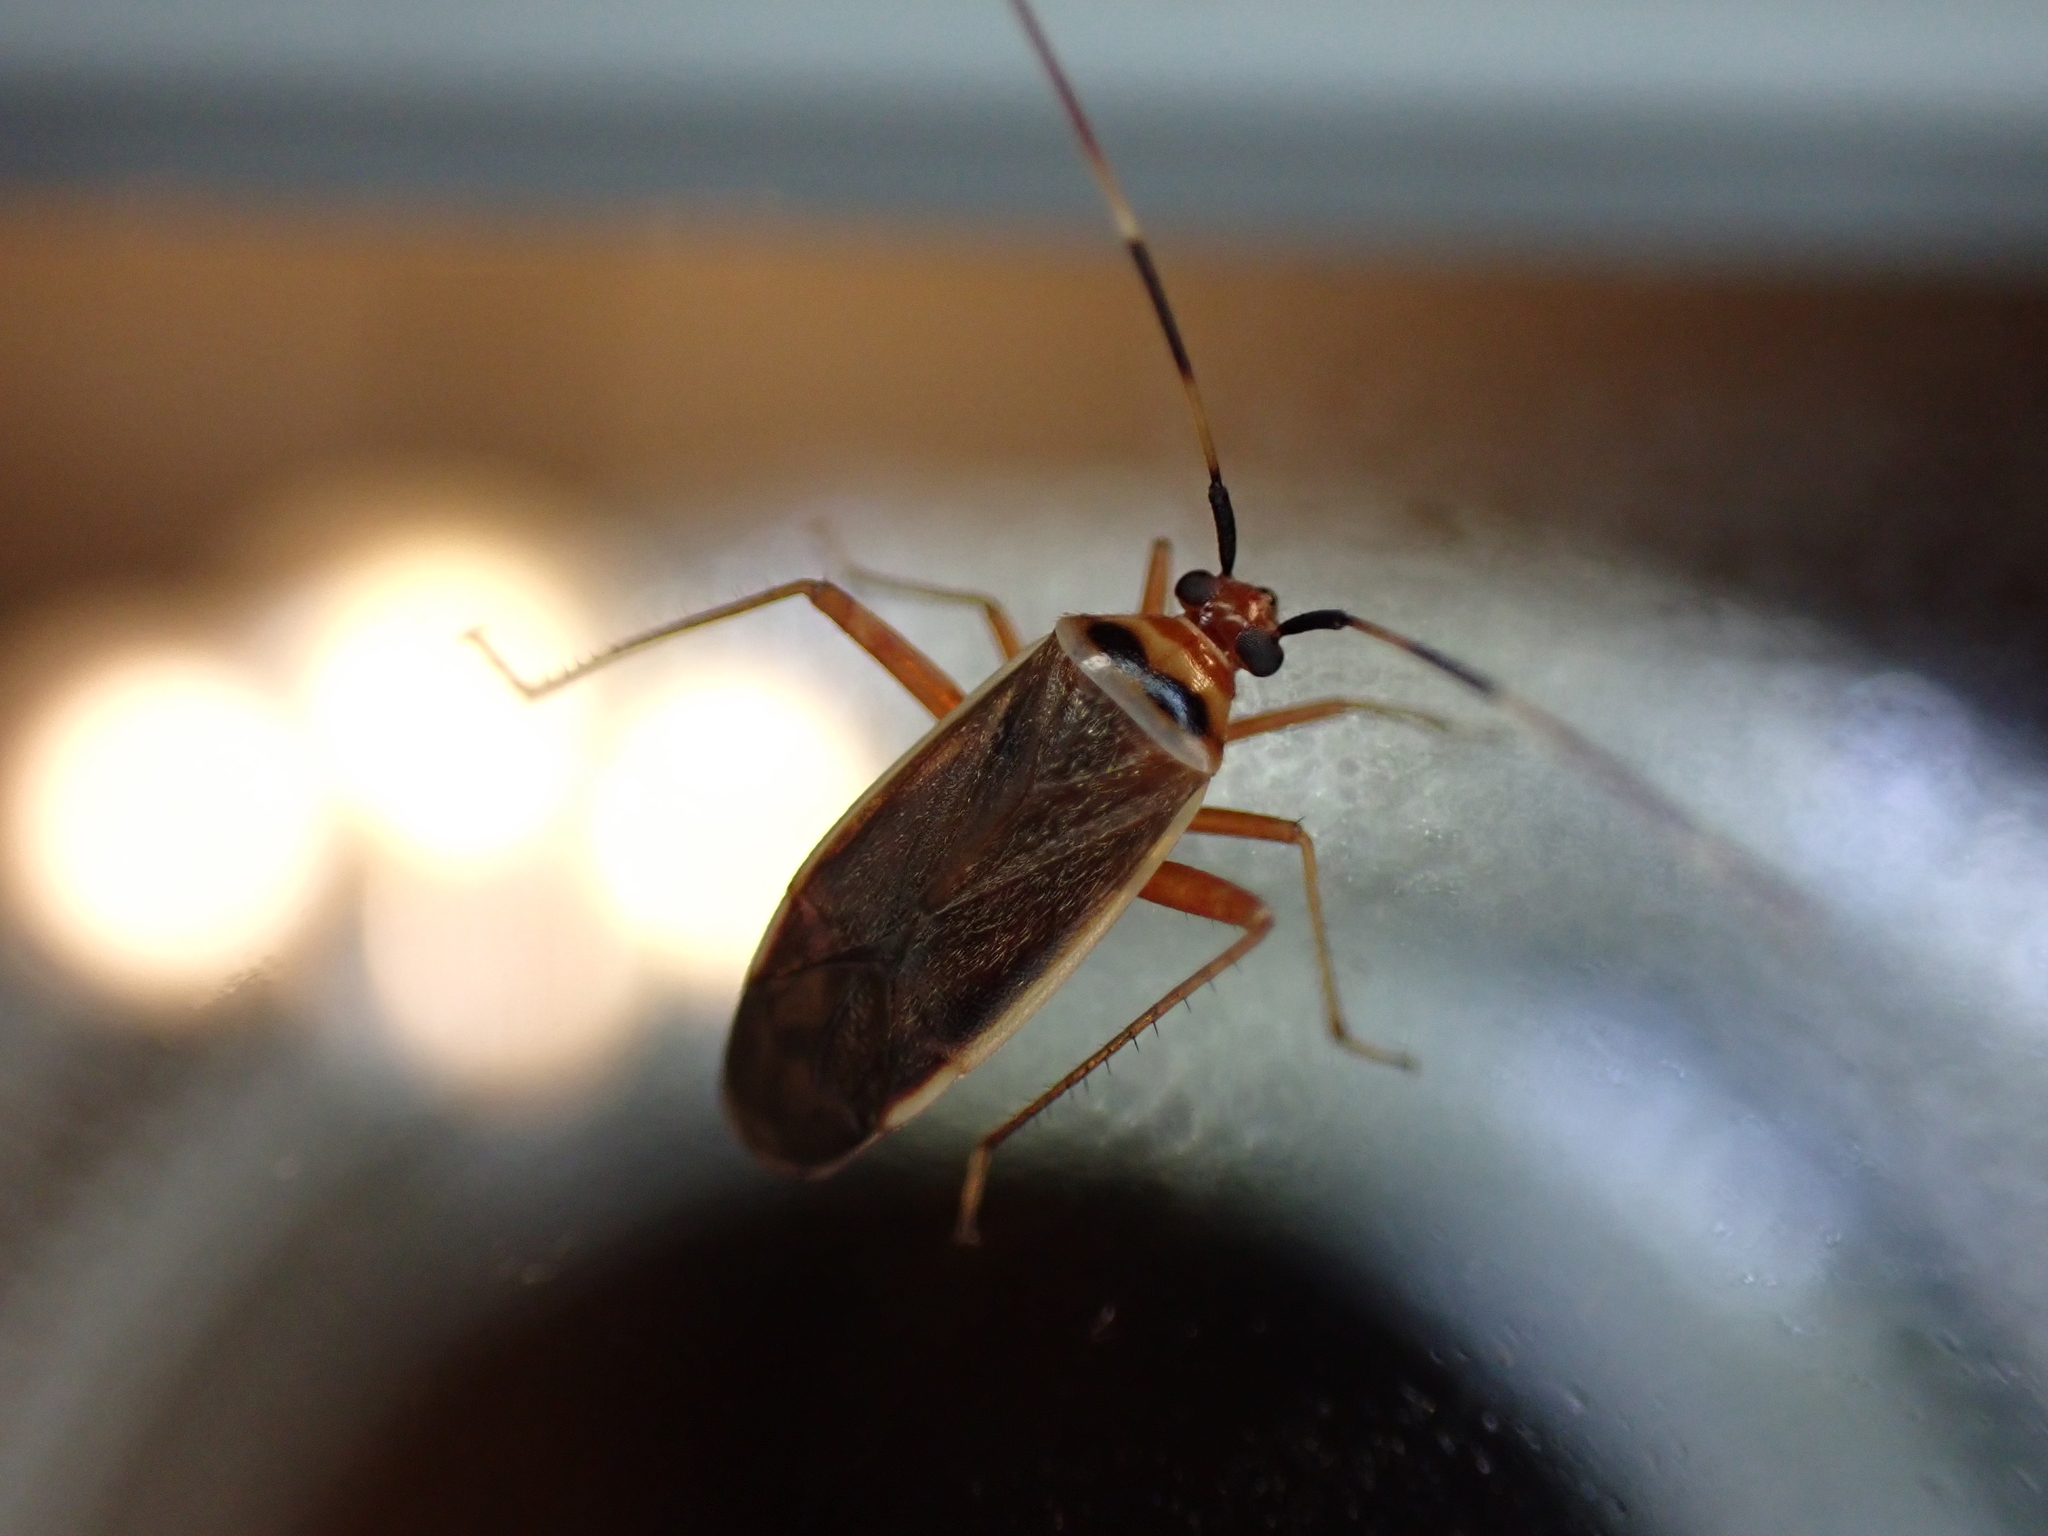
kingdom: Animalia
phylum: Arthropoda
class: Insecta
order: Hemiptera
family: Miridae
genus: Adelphocoris
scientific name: Adelphocoris rapidus
